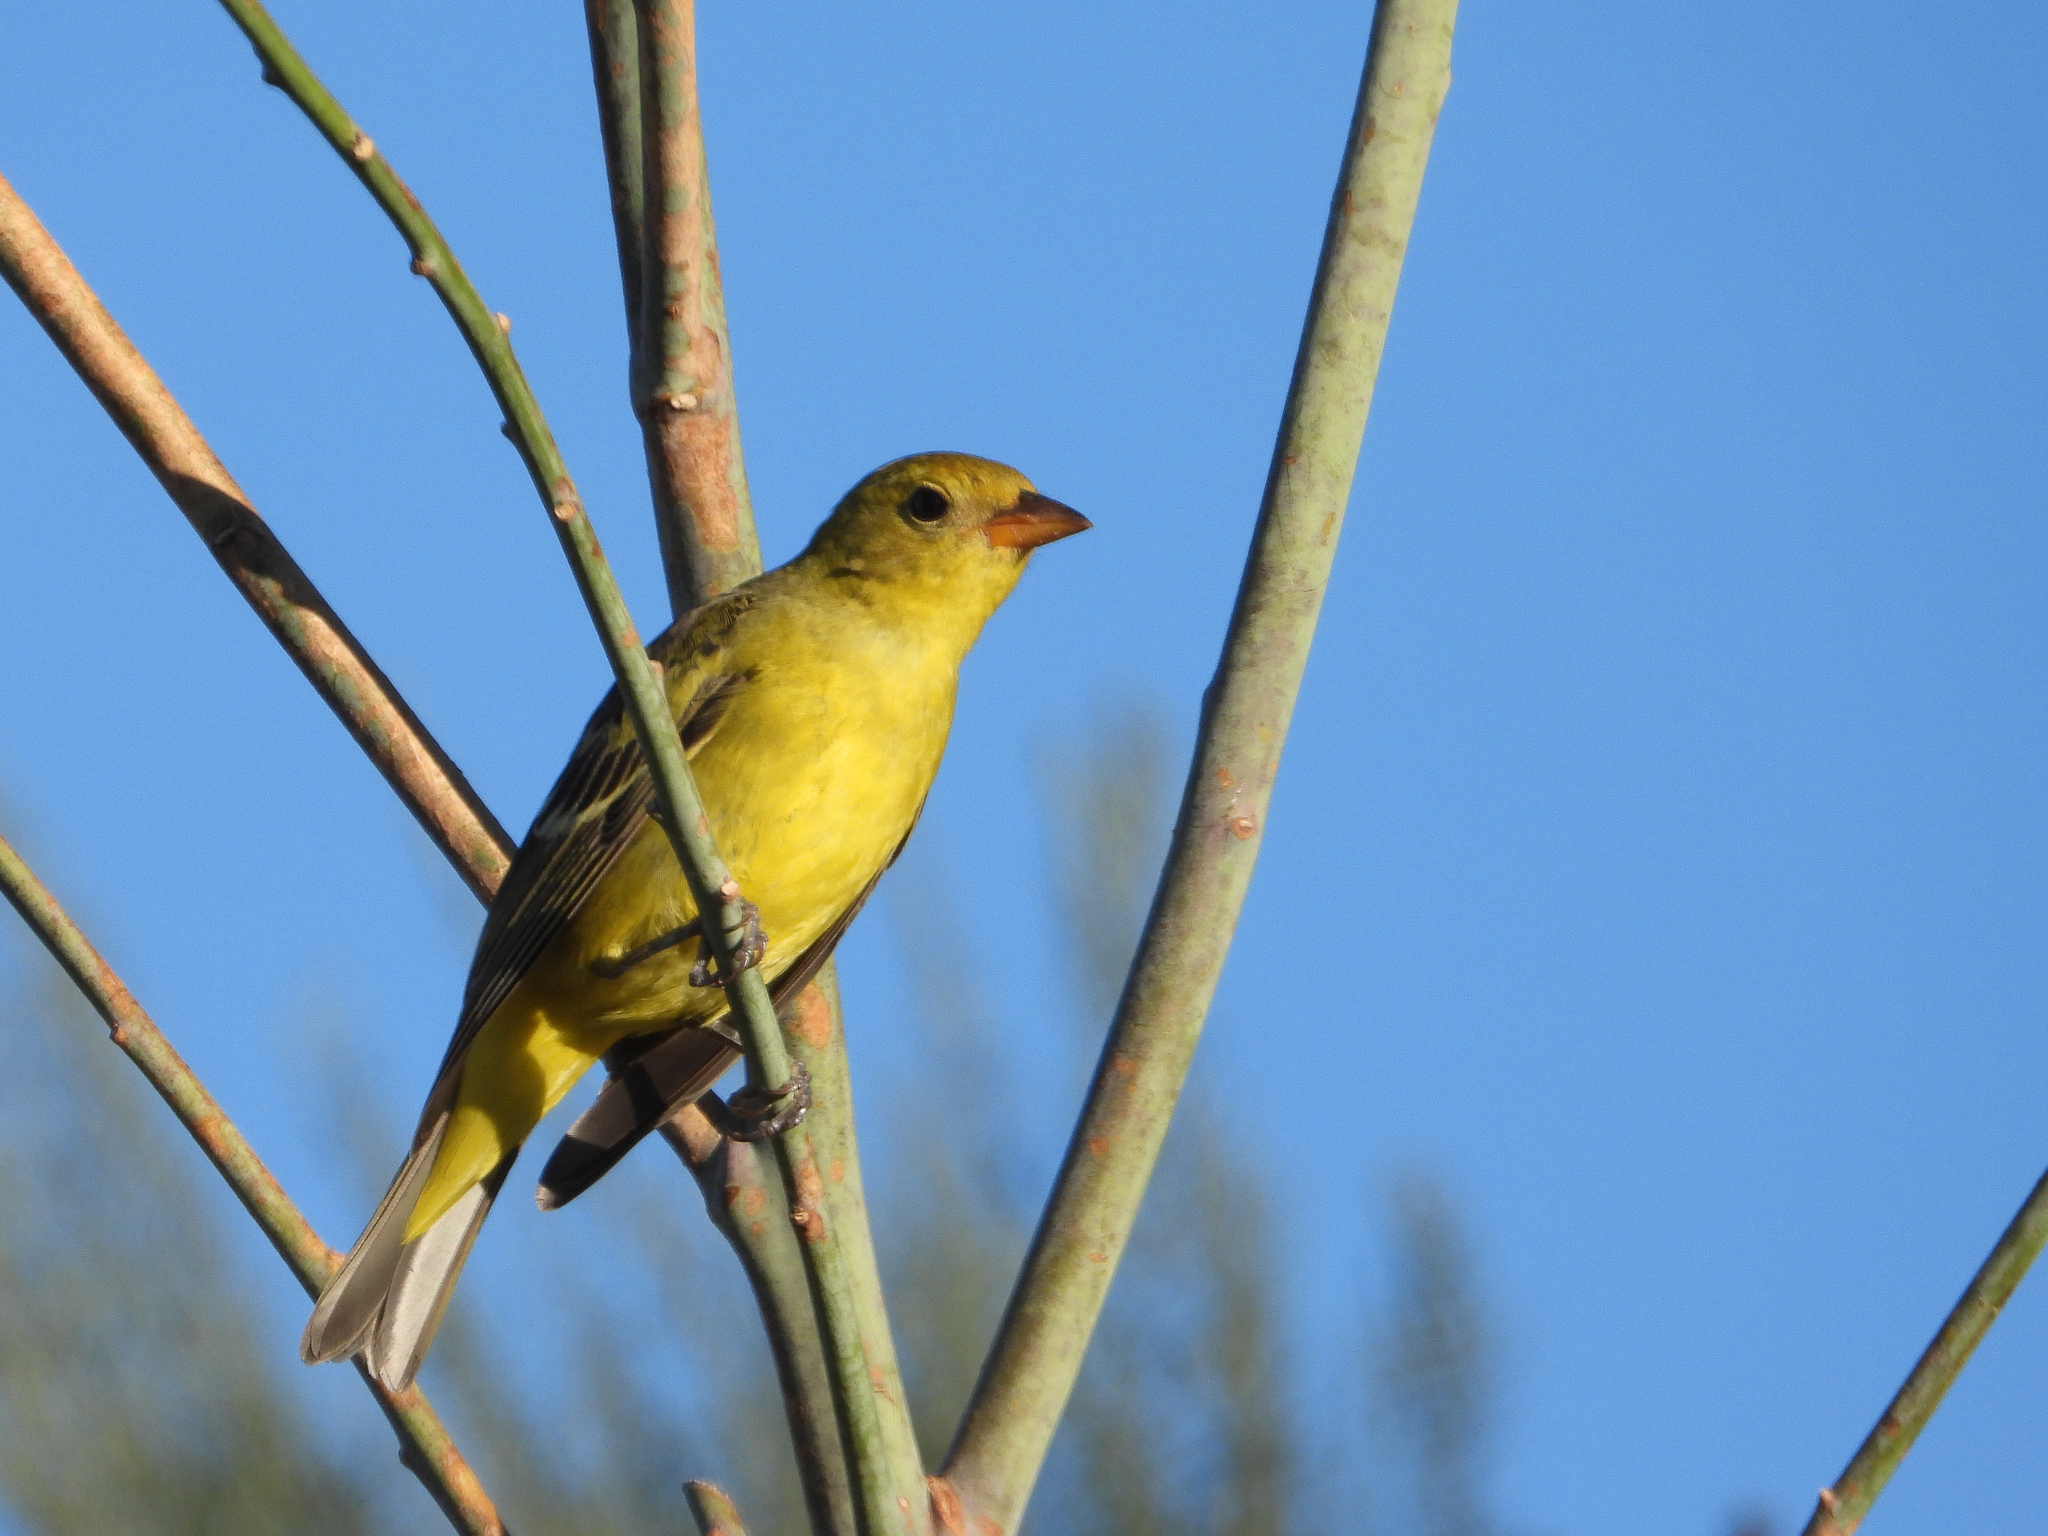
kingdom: Animalia
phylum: Chordata
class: Aves
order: Passeriformes
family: Cardinalidae
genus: Piranga
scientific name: Piranga ludoviciana
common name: Western tanager
